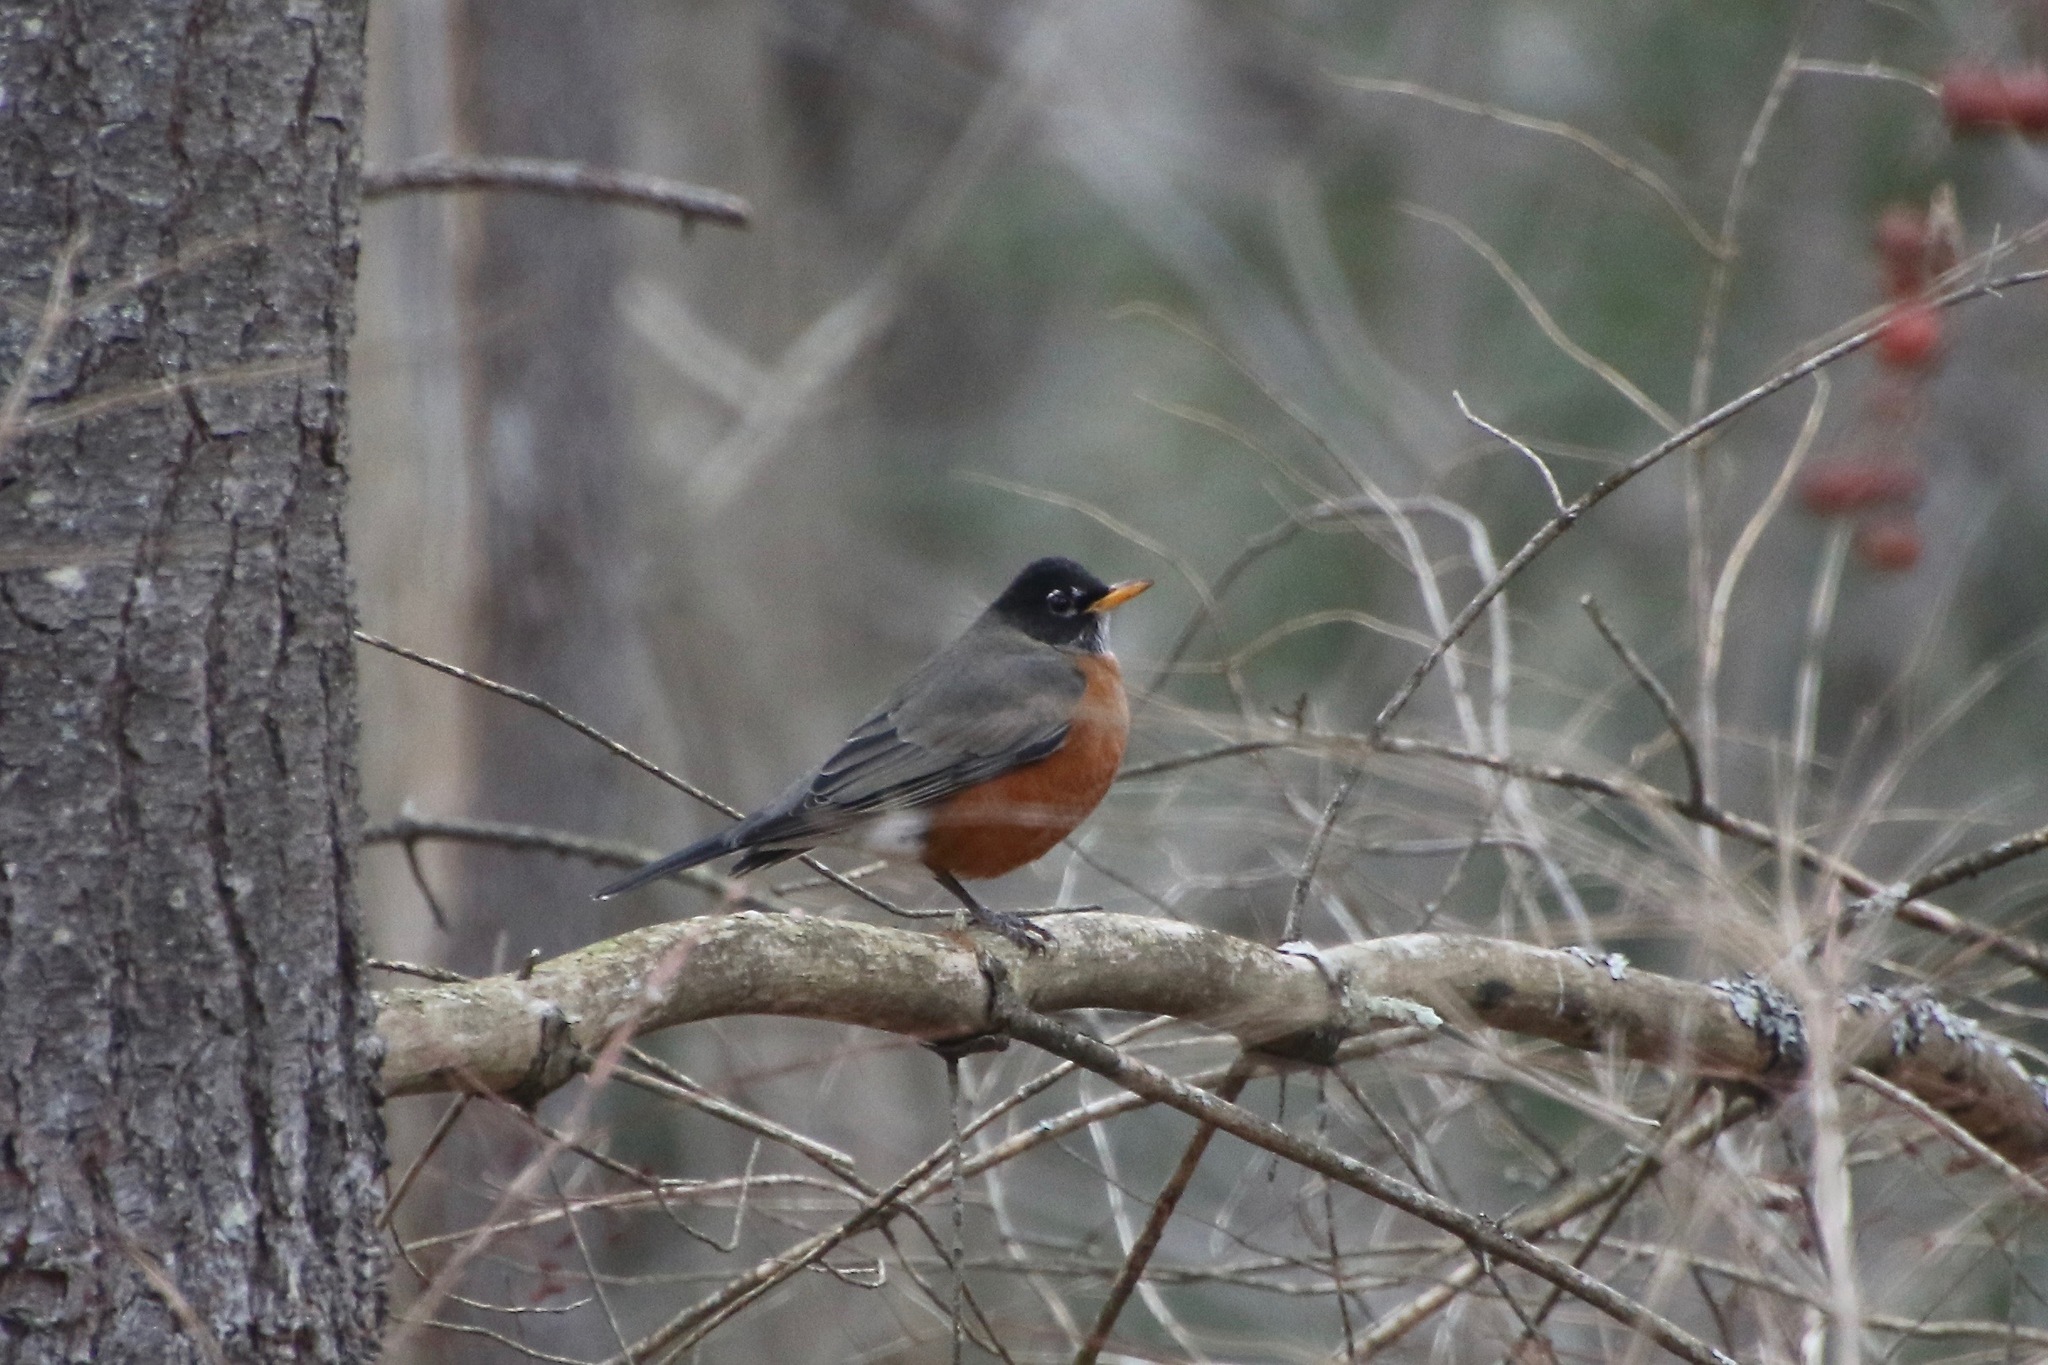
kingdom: Animalia
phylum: Chordata
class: Aves
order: Passeriformes
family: Turdidae
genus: Turdus
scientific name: Turdus migratorius
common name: American robin
